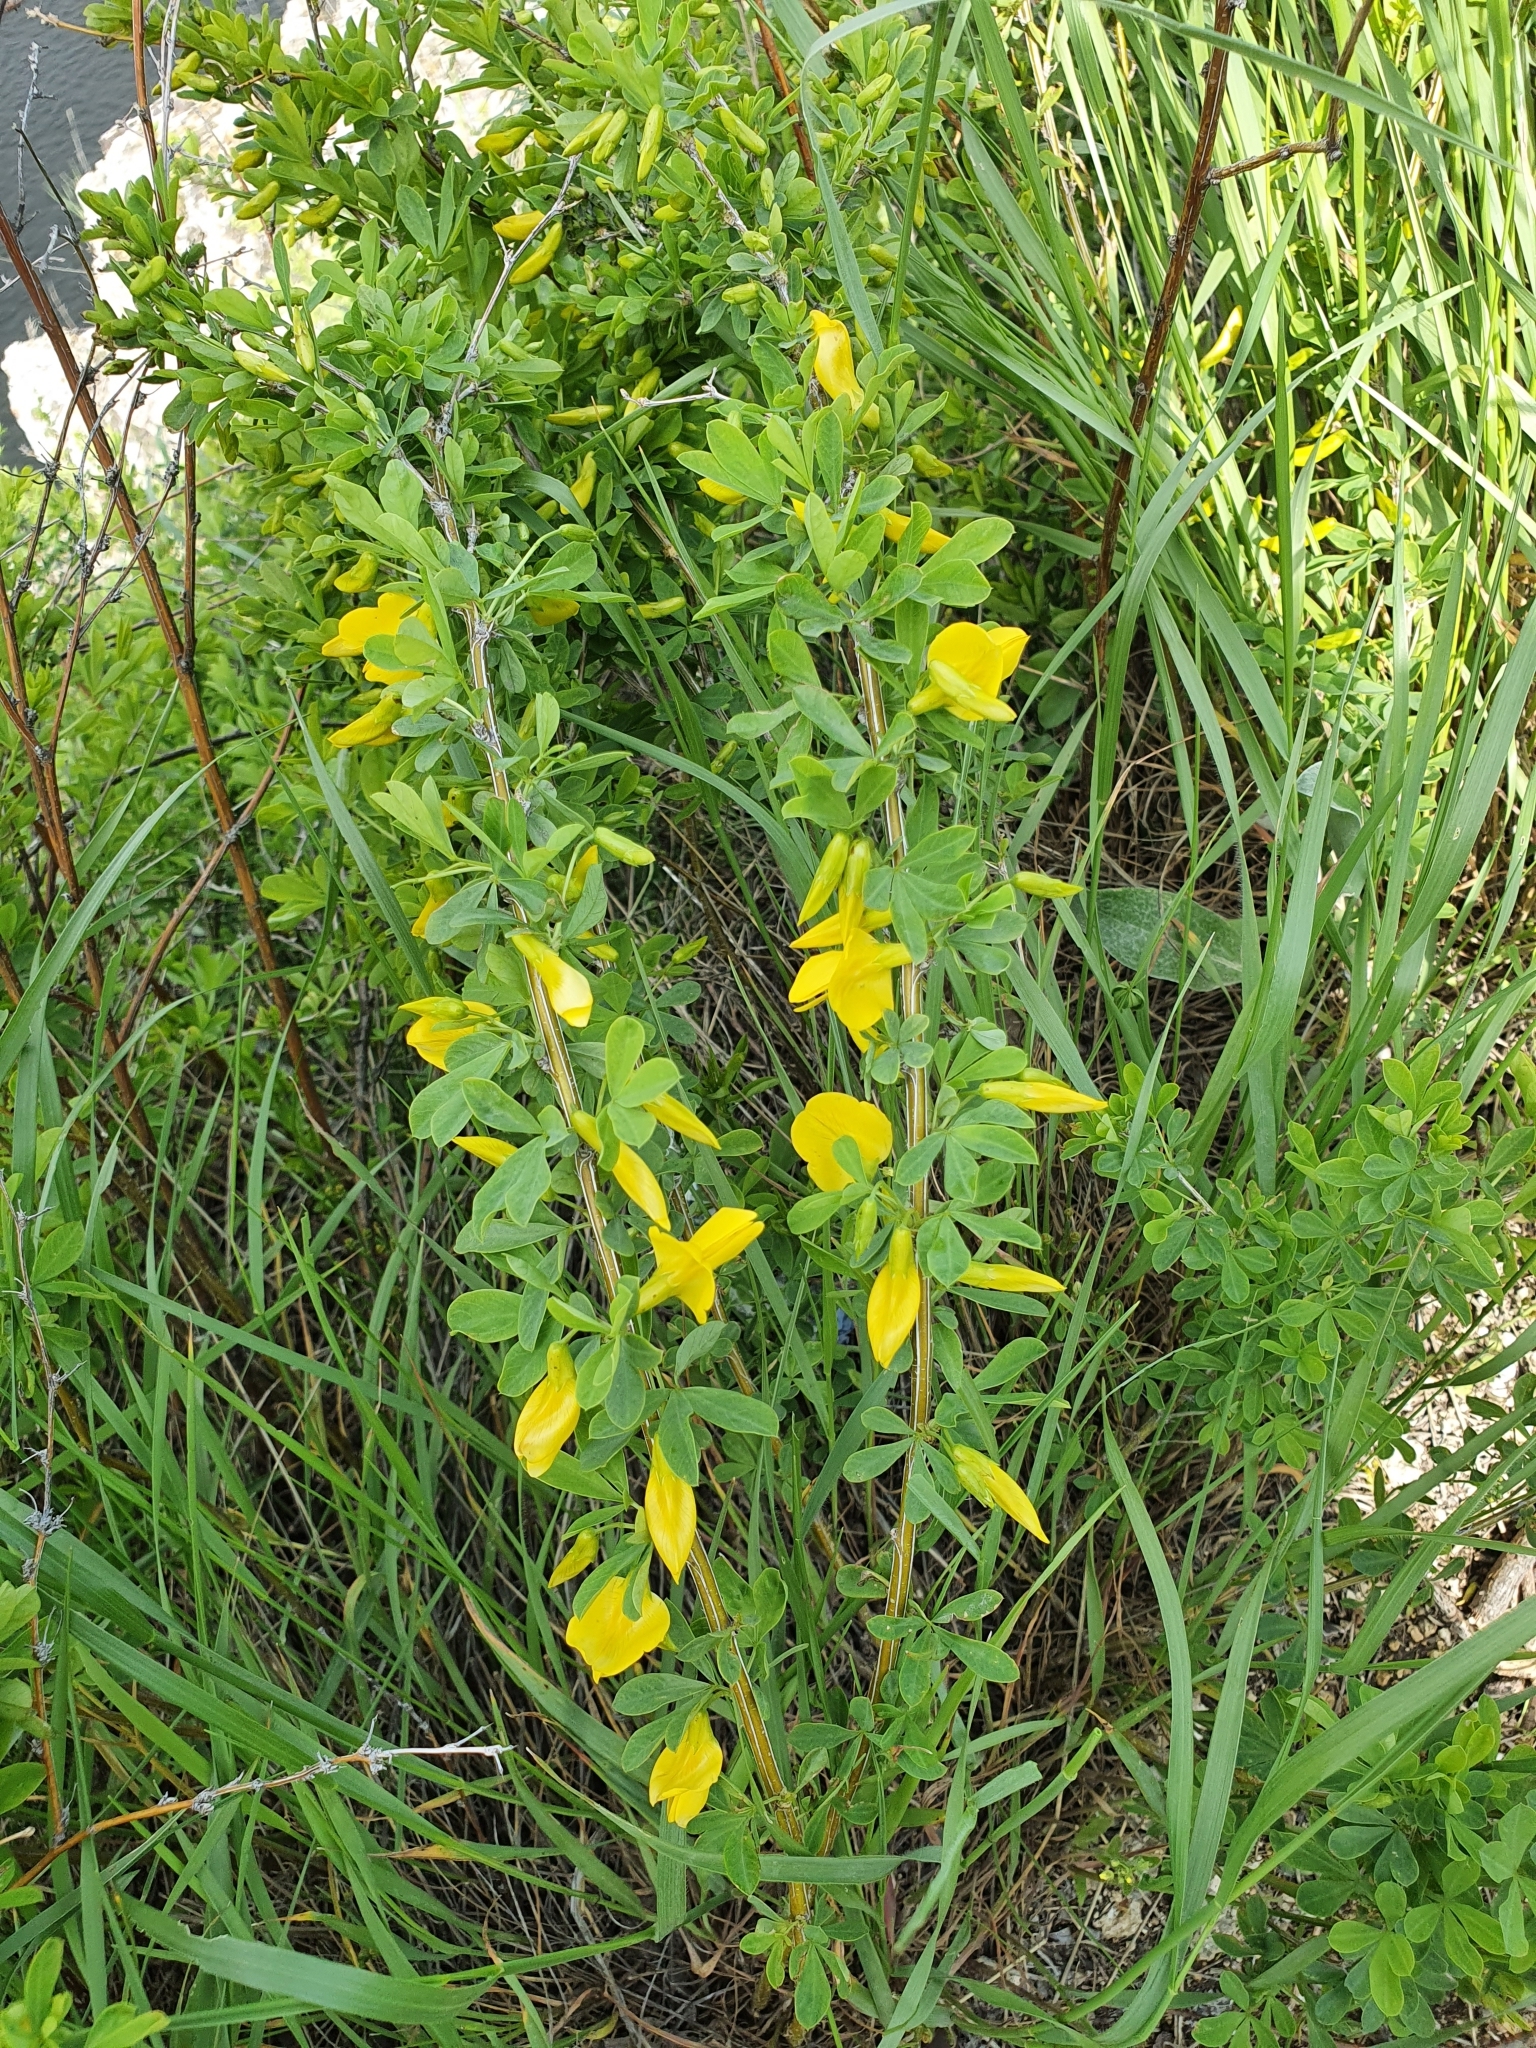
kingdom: Plantae
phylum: Tracheophyta
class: Magnoliopsida
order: Fabales
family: Fabaceae
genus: Caragana
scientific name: Caragana frutex
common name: Russian peashrub
